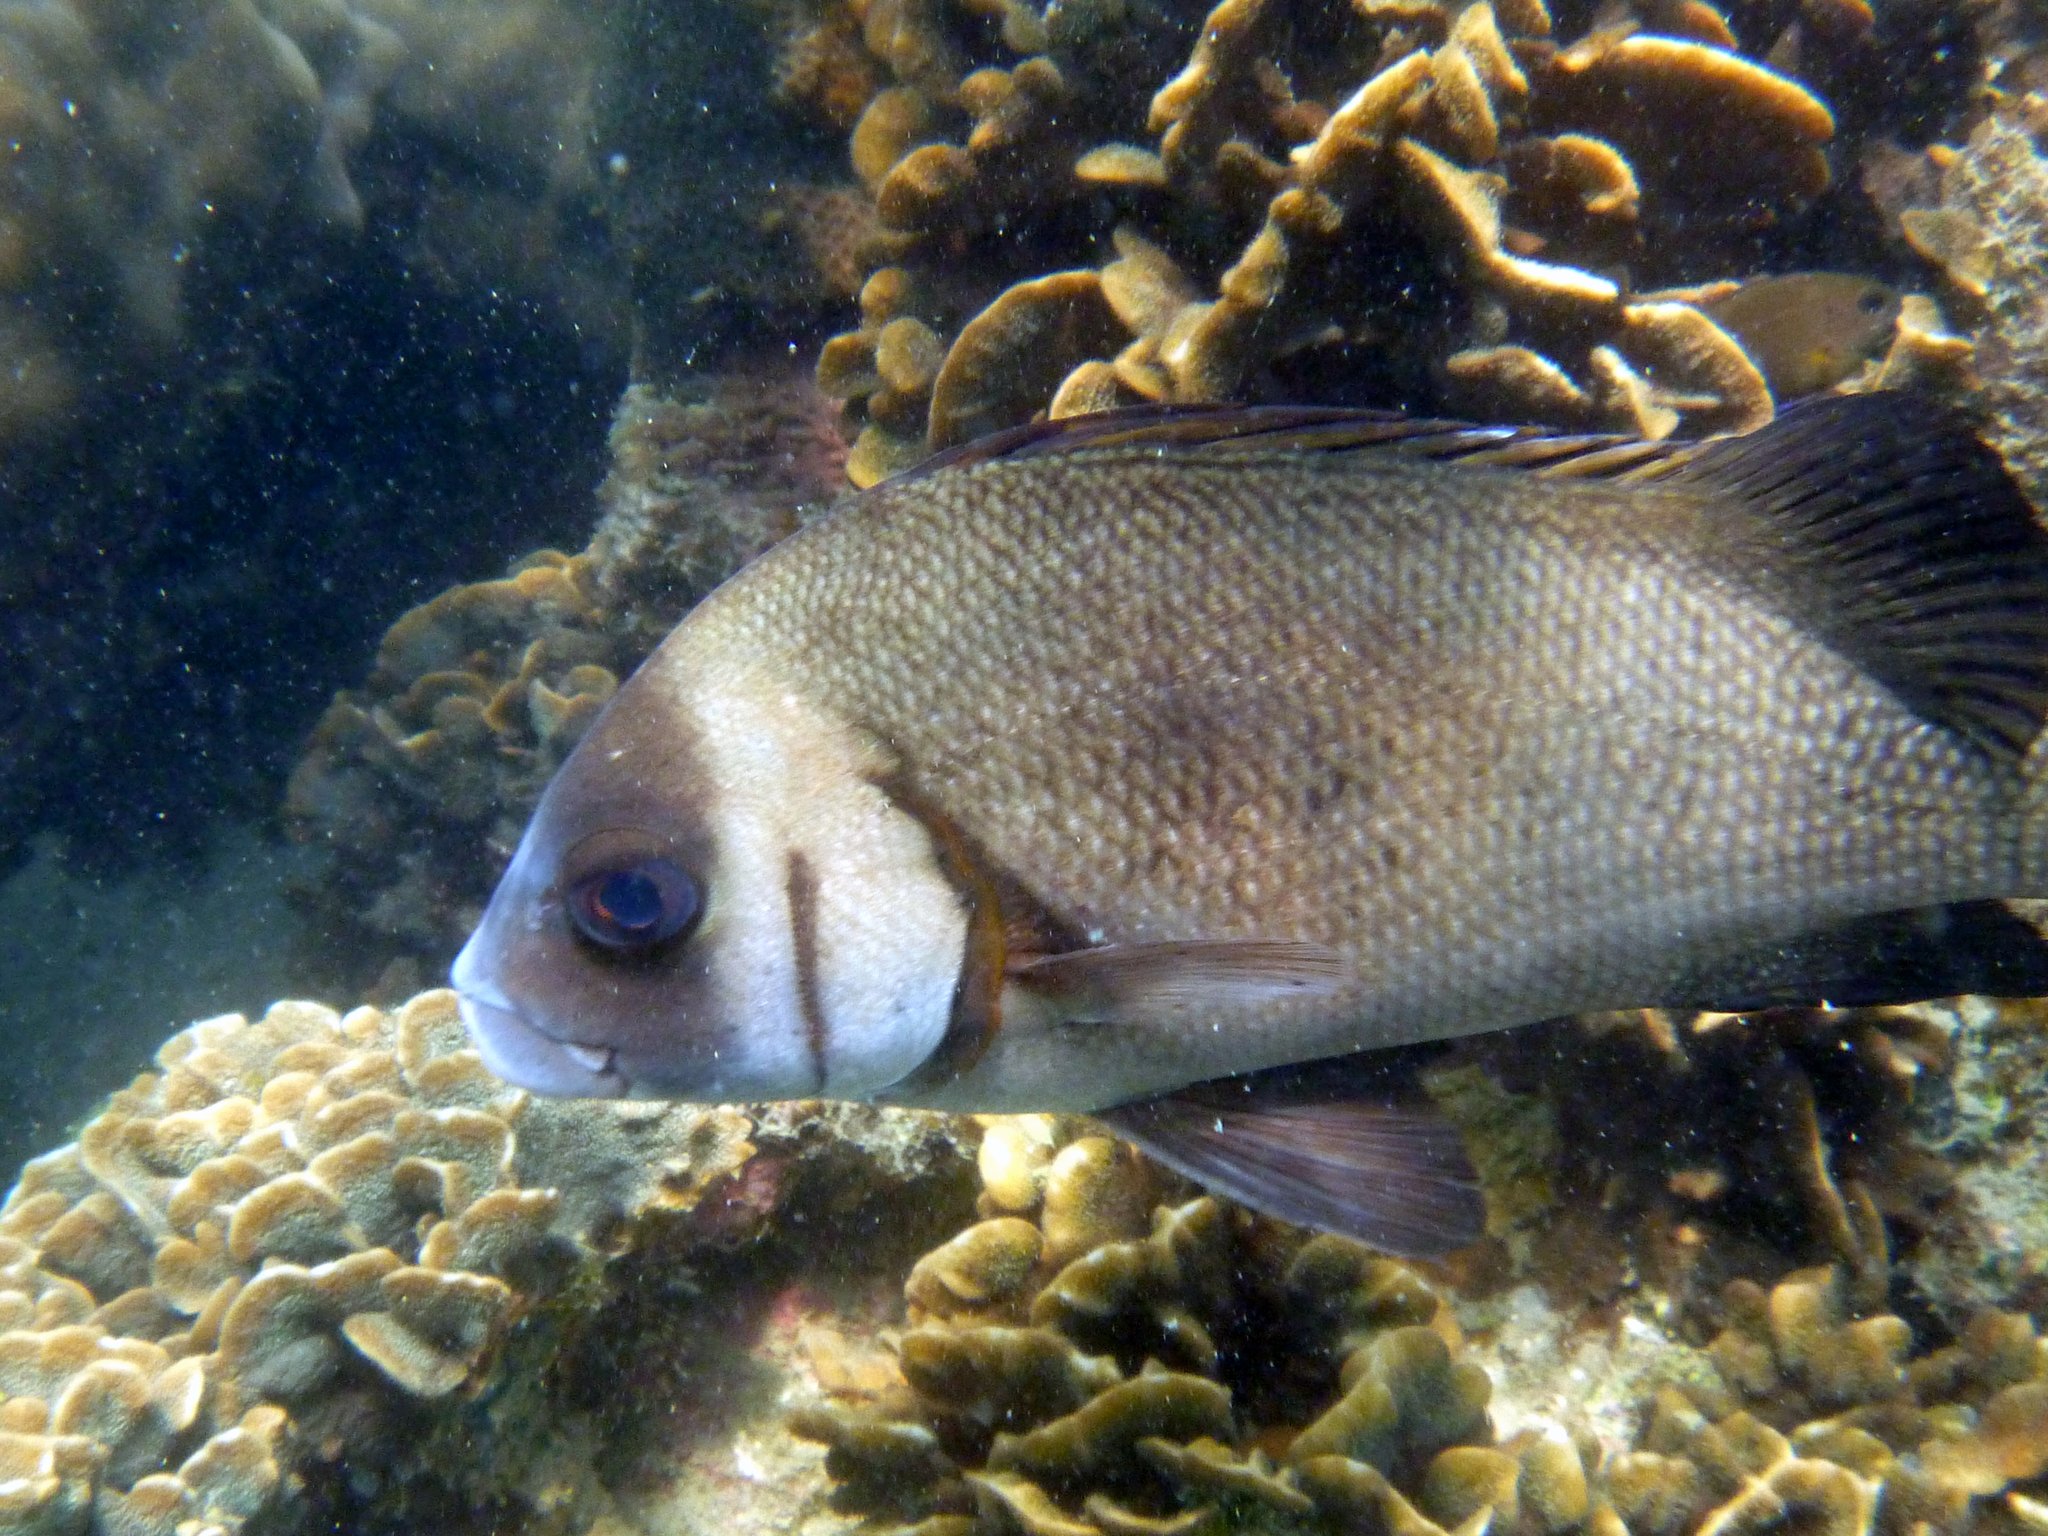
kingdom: Animalia
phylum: Chordata
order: Perciformes
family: Haemulidae
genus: Plectorhinchus
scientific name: Plectorhinchus gibbosus
